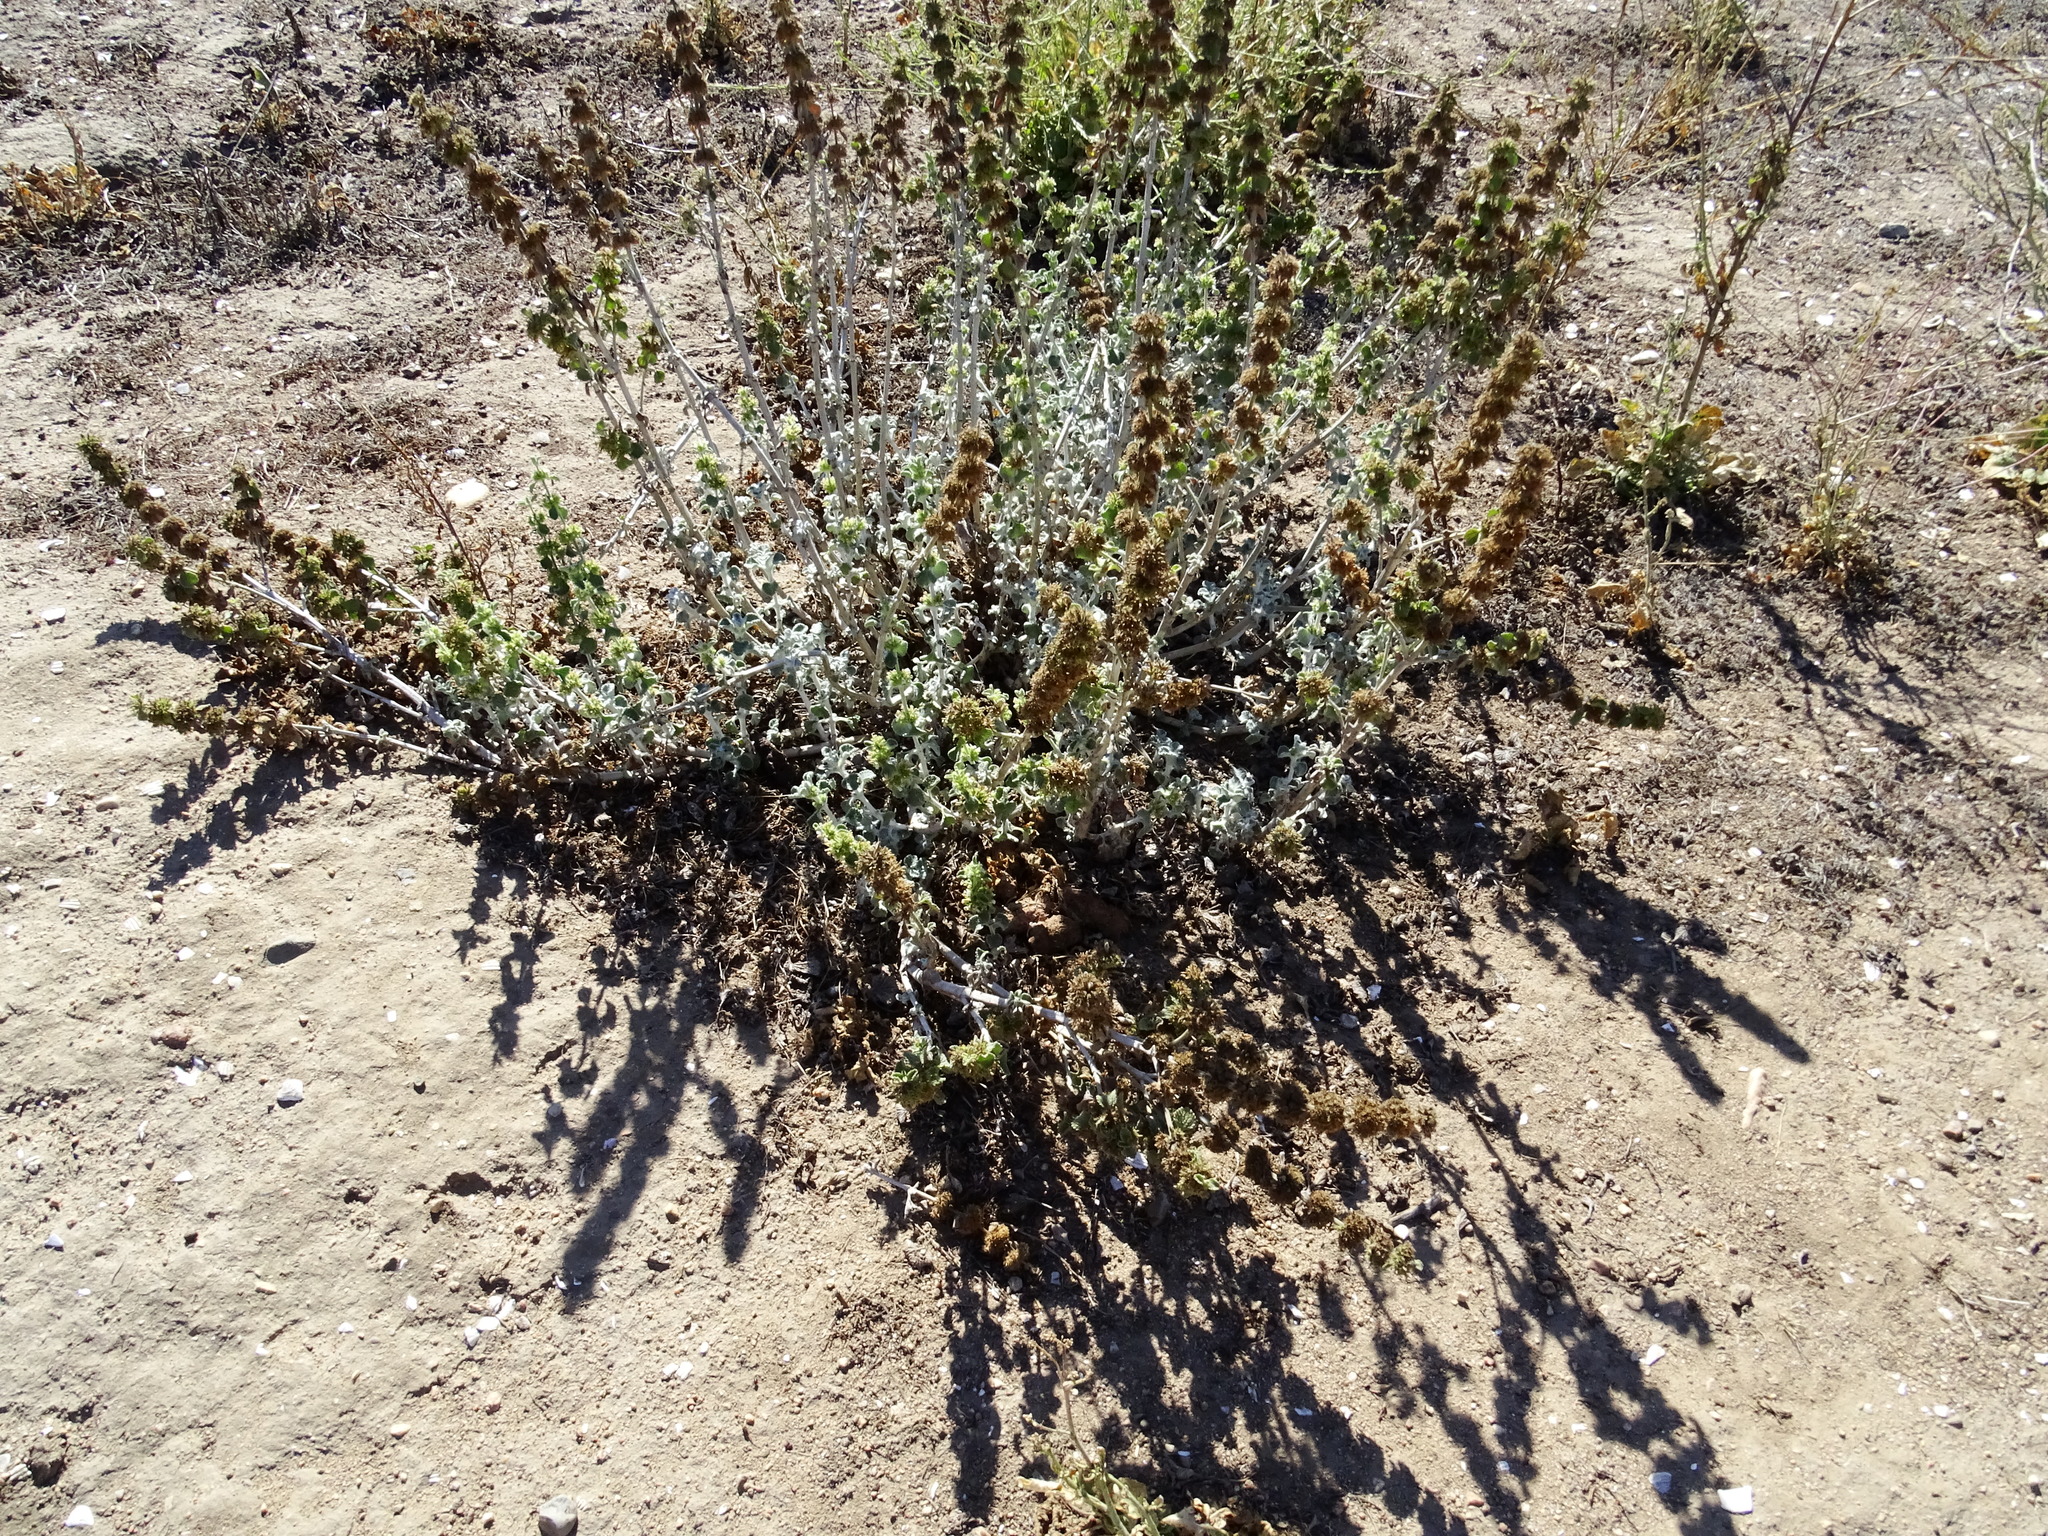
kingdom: Plantae
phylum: Tracheophyta
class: Magnoliopsida
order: Lamiales
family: Lamiaceae
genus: Marrubium
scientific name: Marrubium vulgare
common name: Horehound
